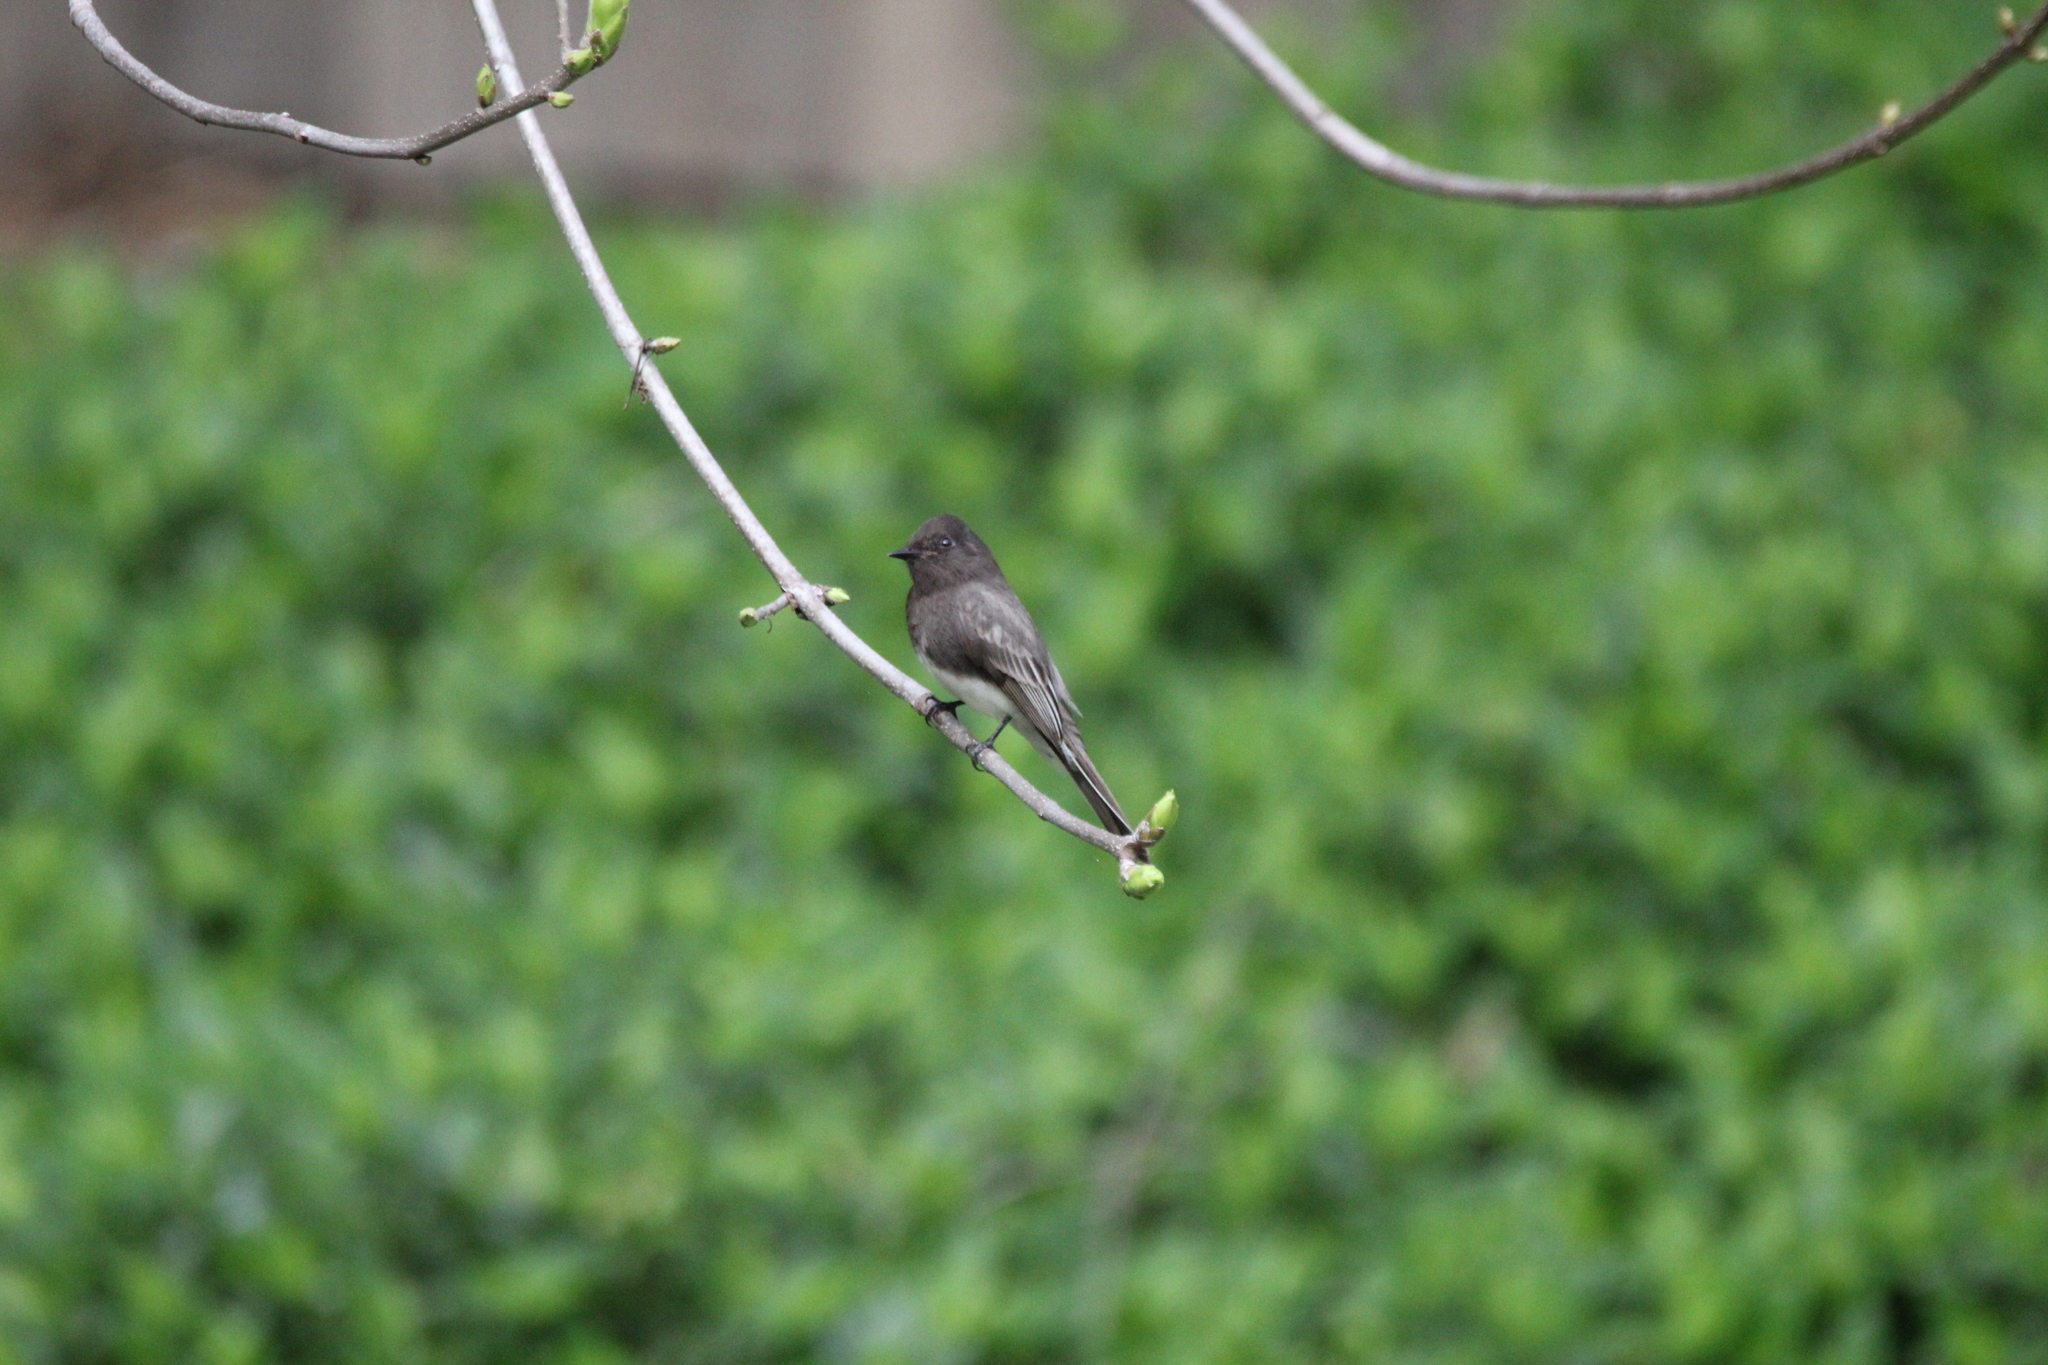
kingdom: Animalia
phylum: Chordata
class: Aves
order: Passeriformes
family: Tyrannidae
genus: Sayornis
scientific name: Sayornis nigricans
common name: Black phoebe
